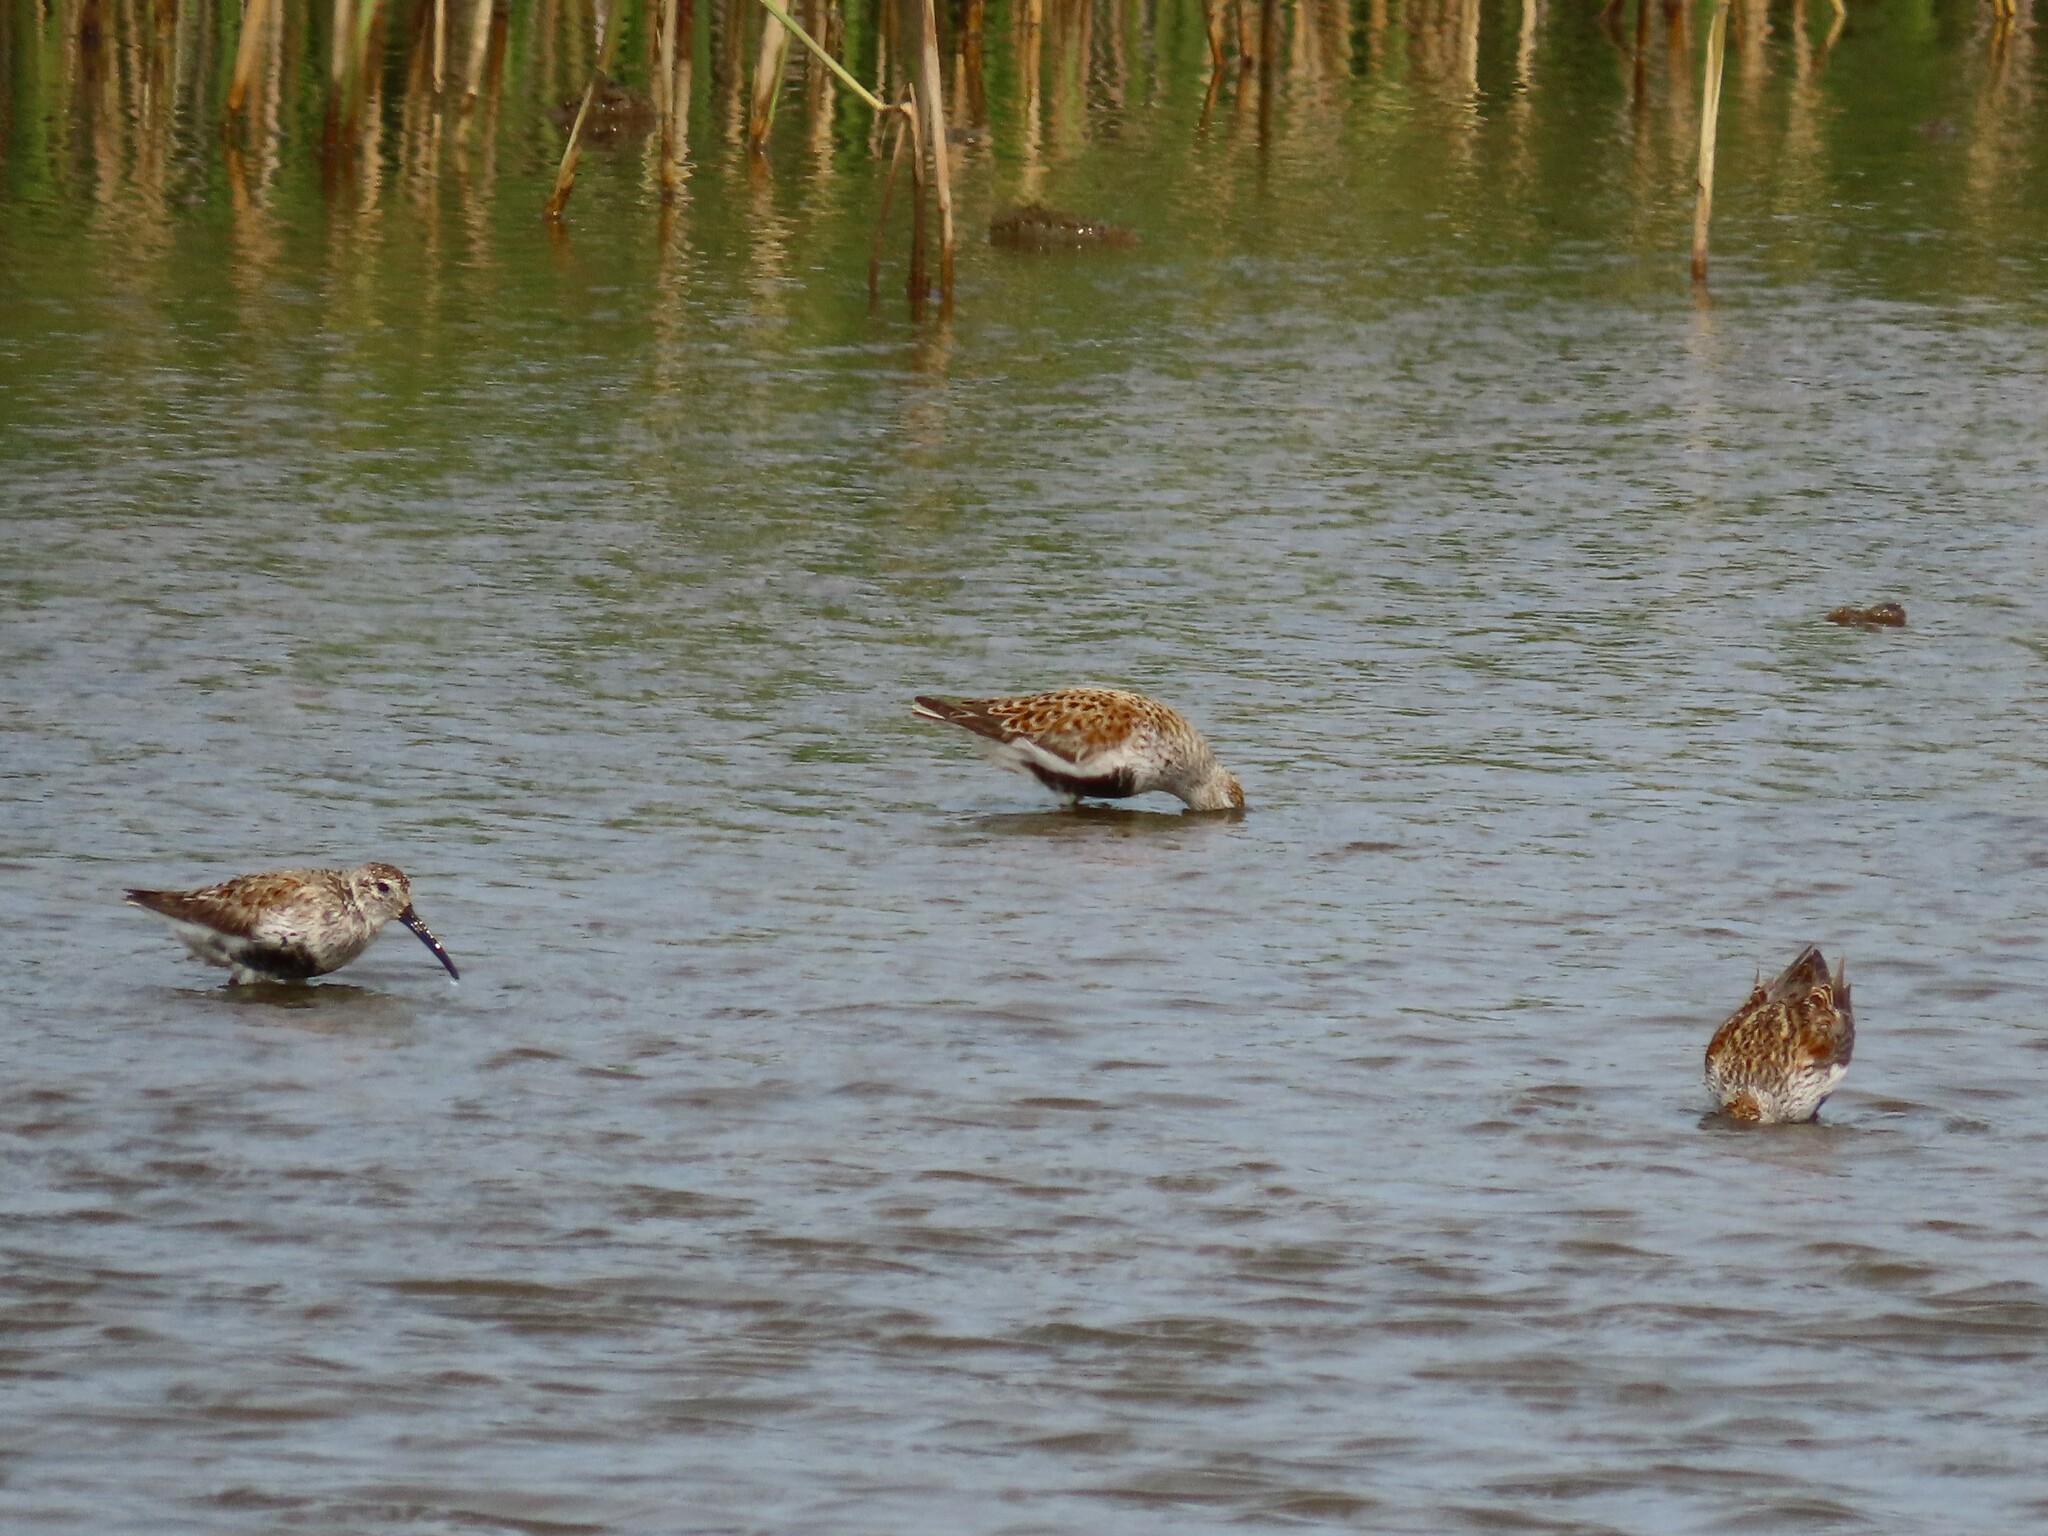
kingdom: Animalia
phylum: Chordata
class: Aves
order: Charadriiformes
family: Scolopacidae
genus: Calidris
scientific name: Calidris alpina
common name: Dunlin
